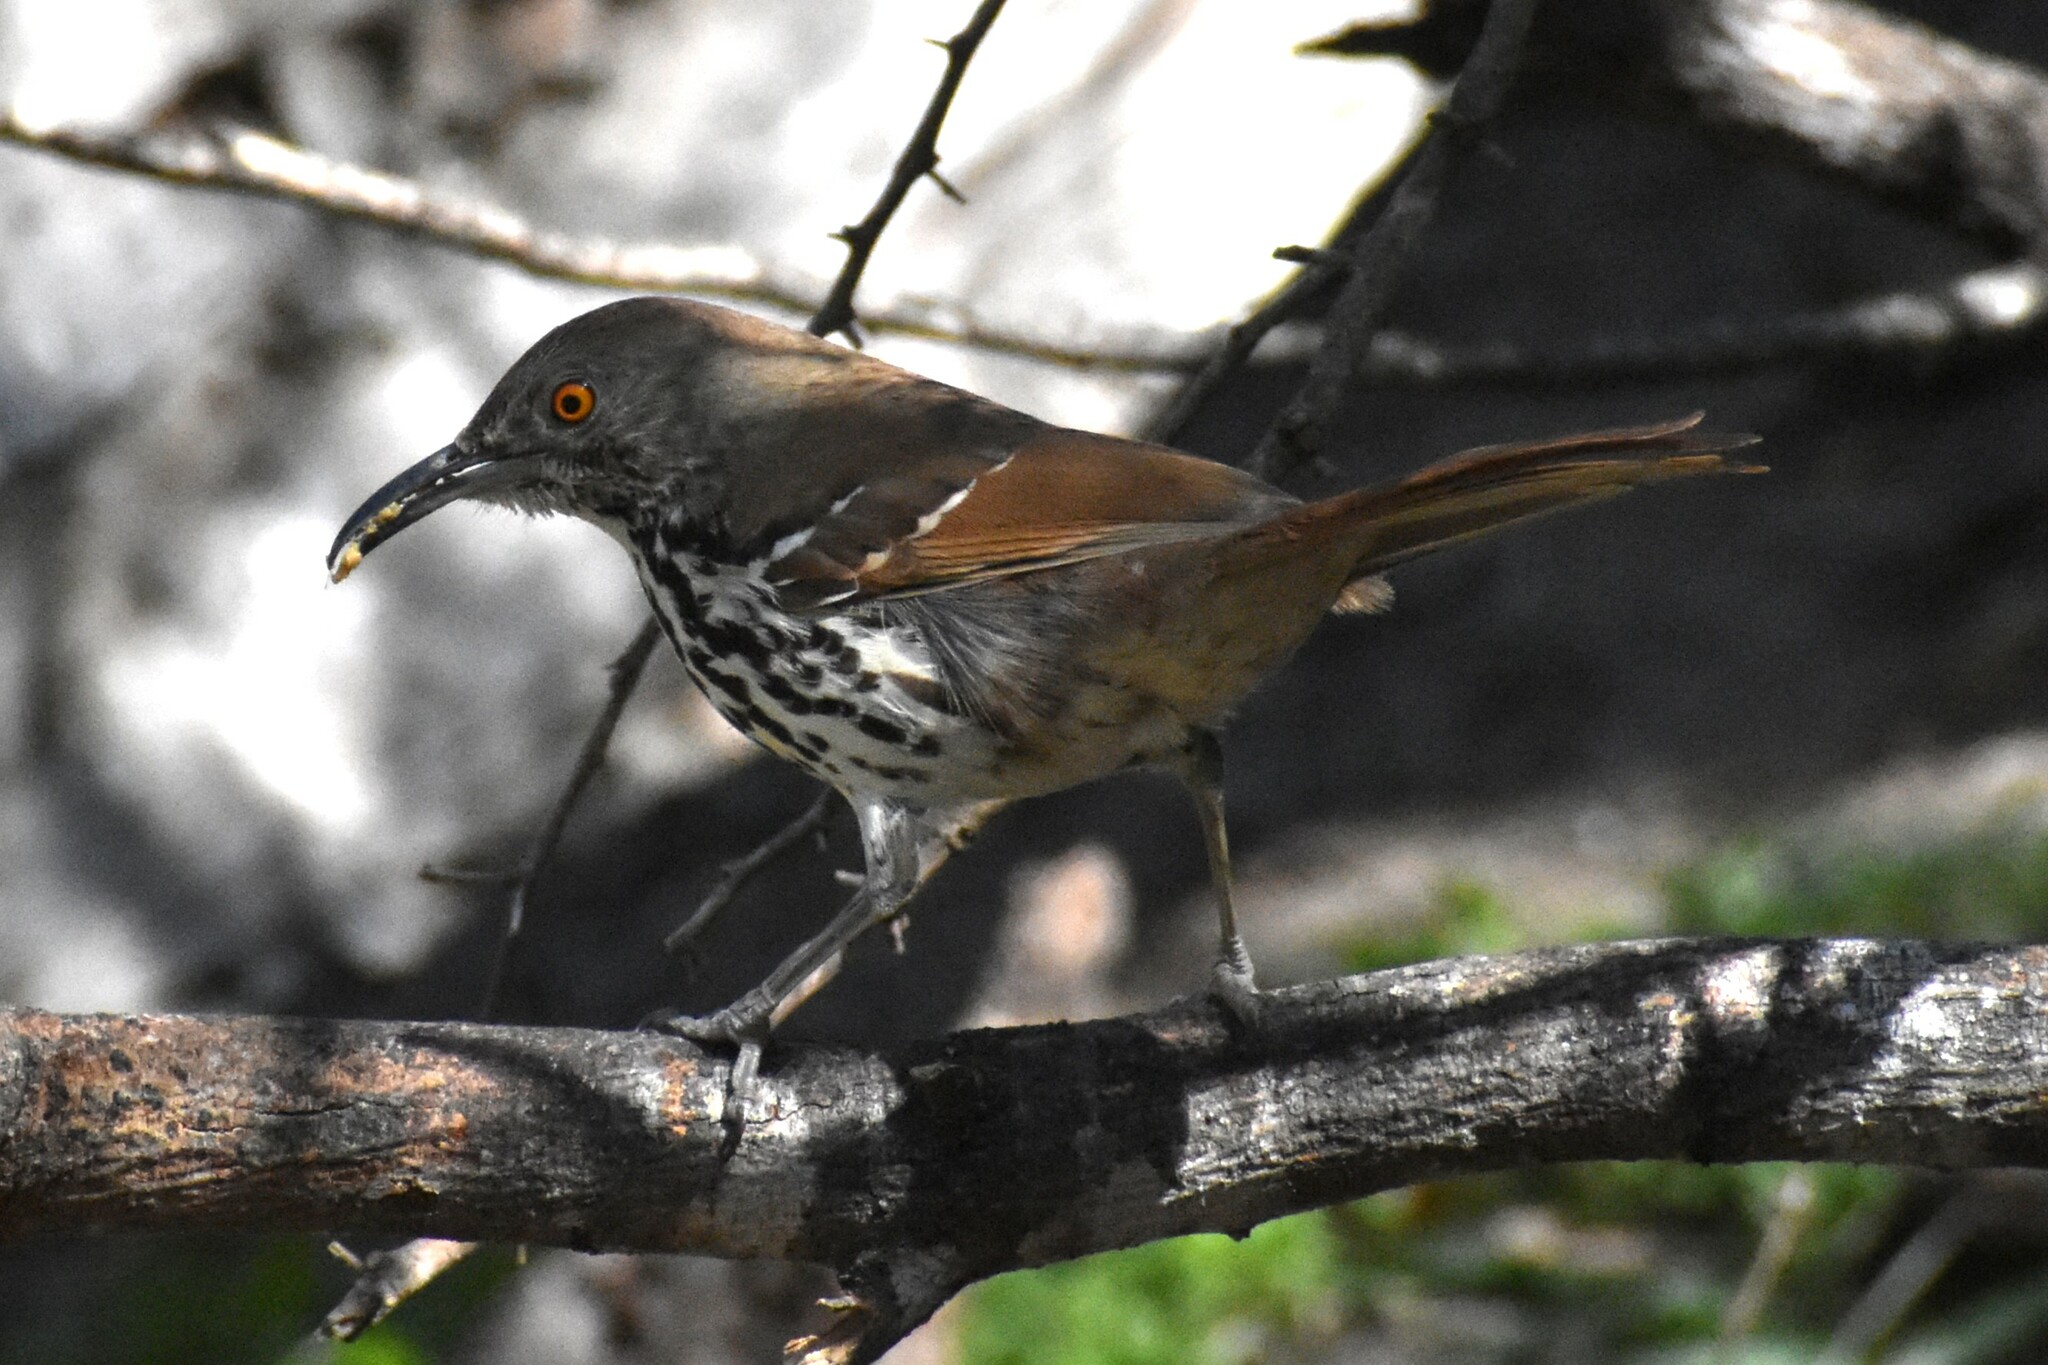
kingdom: Animalia
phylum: Chordata
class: Aves
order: Passeriformes
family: Mimidae
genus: Toxostoma
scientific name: Toxostoma longirostre
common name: Long-billed thrasher
